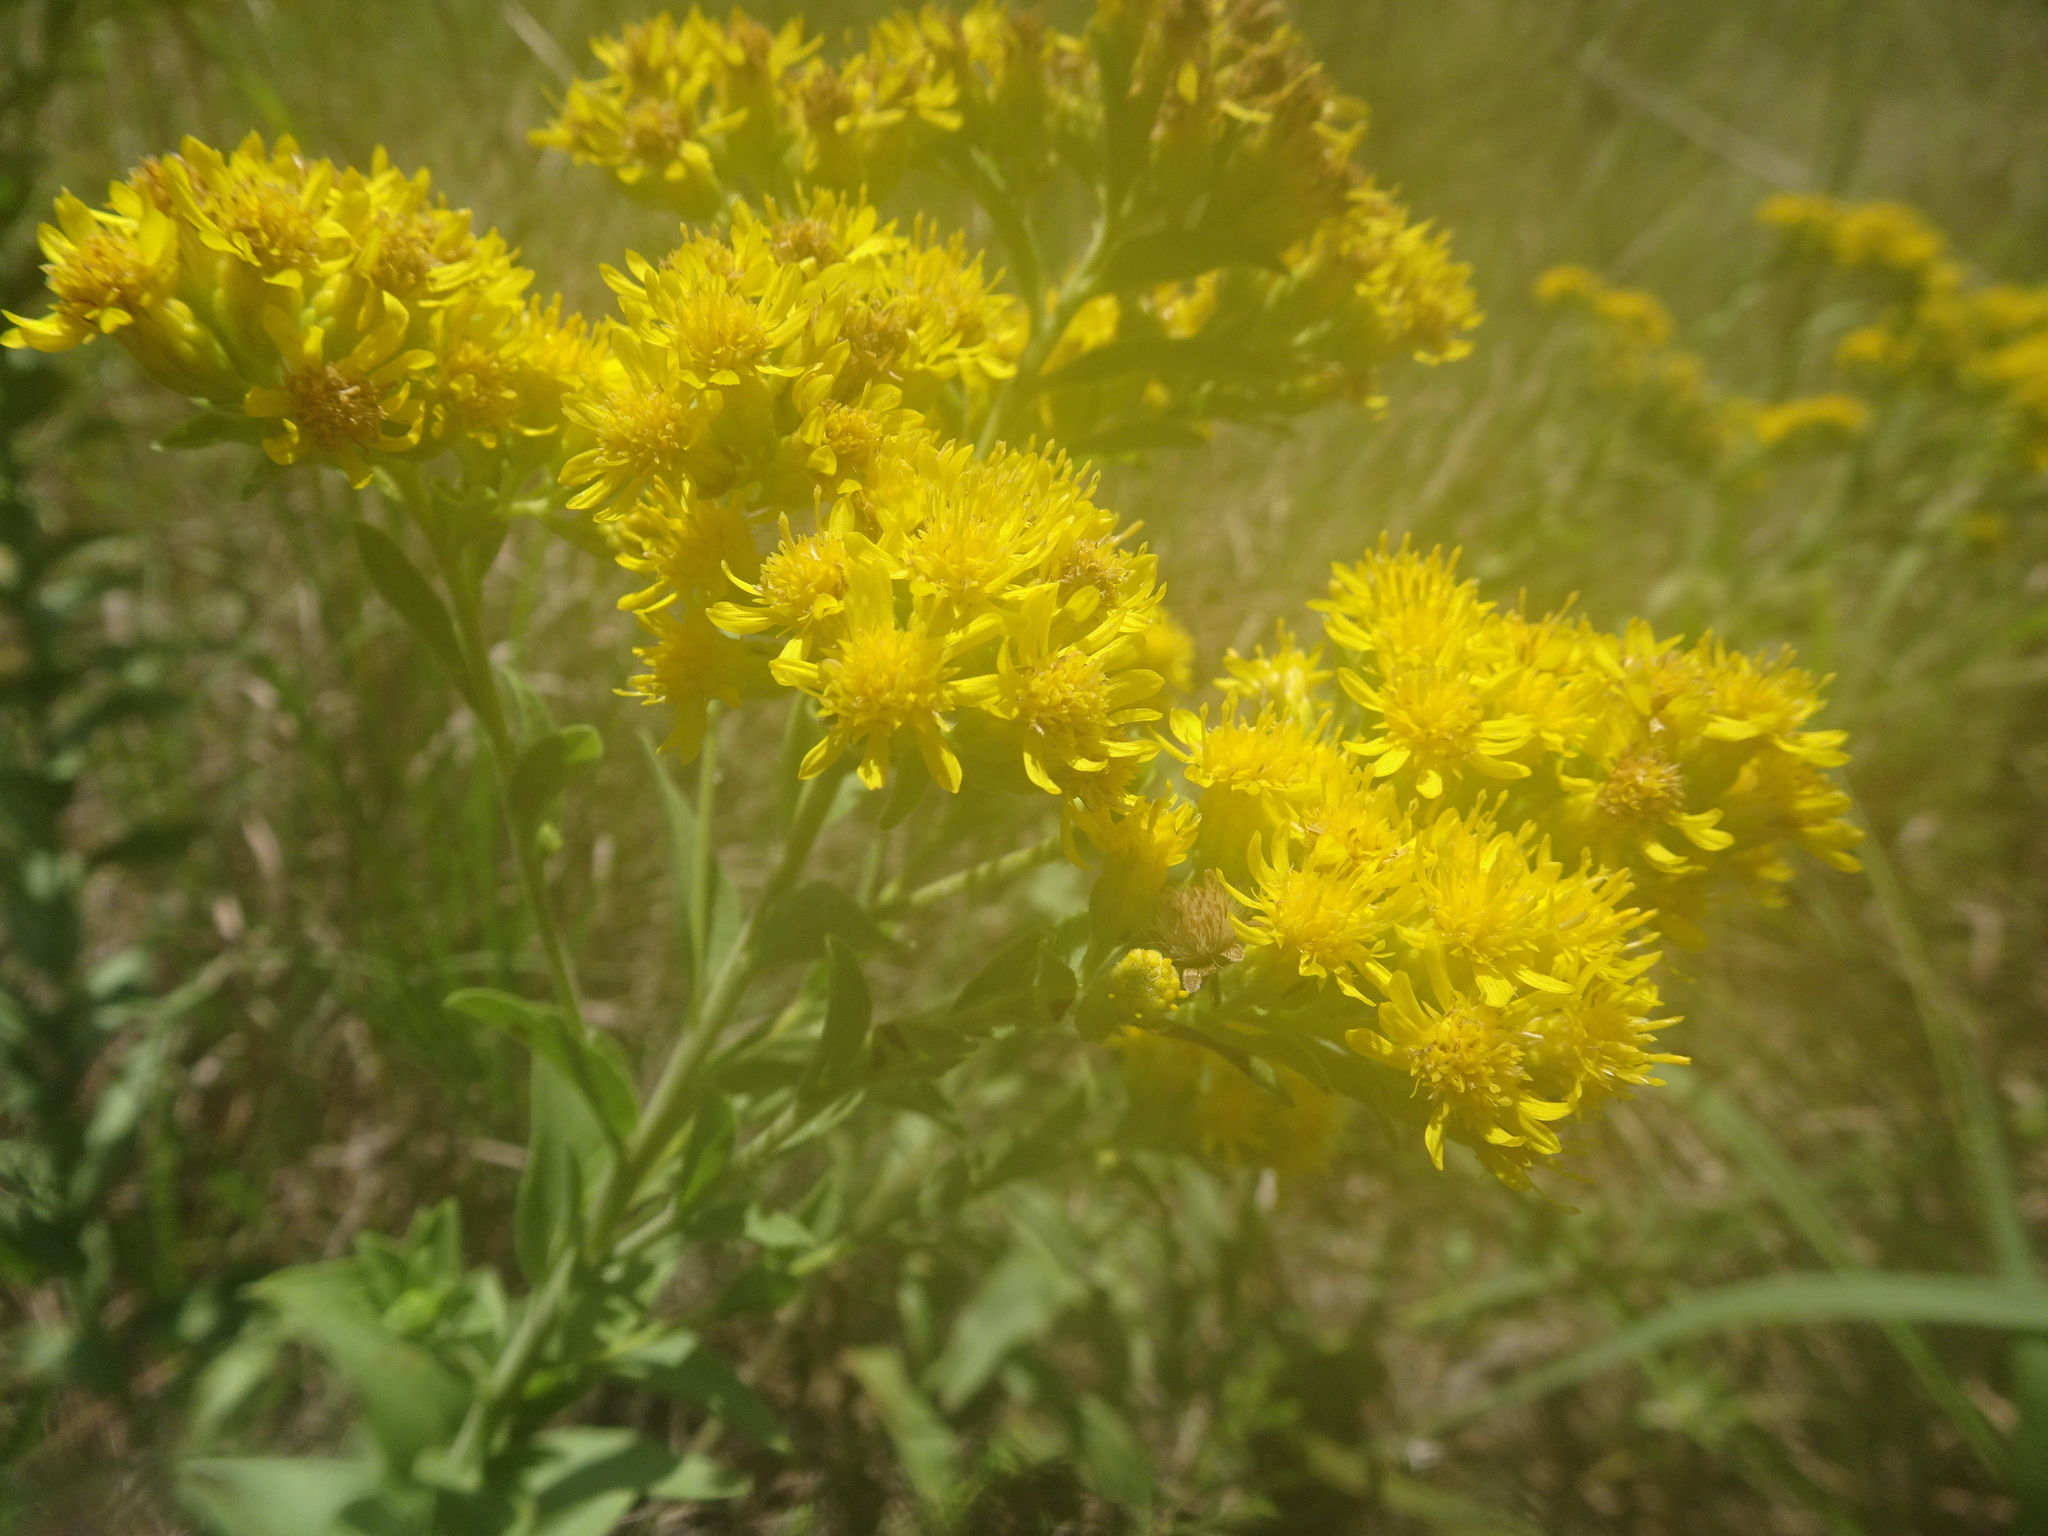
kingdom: Plantae
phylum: Tracheophyta
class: Magnoliopsida
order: Asterales
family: Asteraceae
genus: Solidago
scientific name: Solidago rigida
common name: Rigid goldenrod
